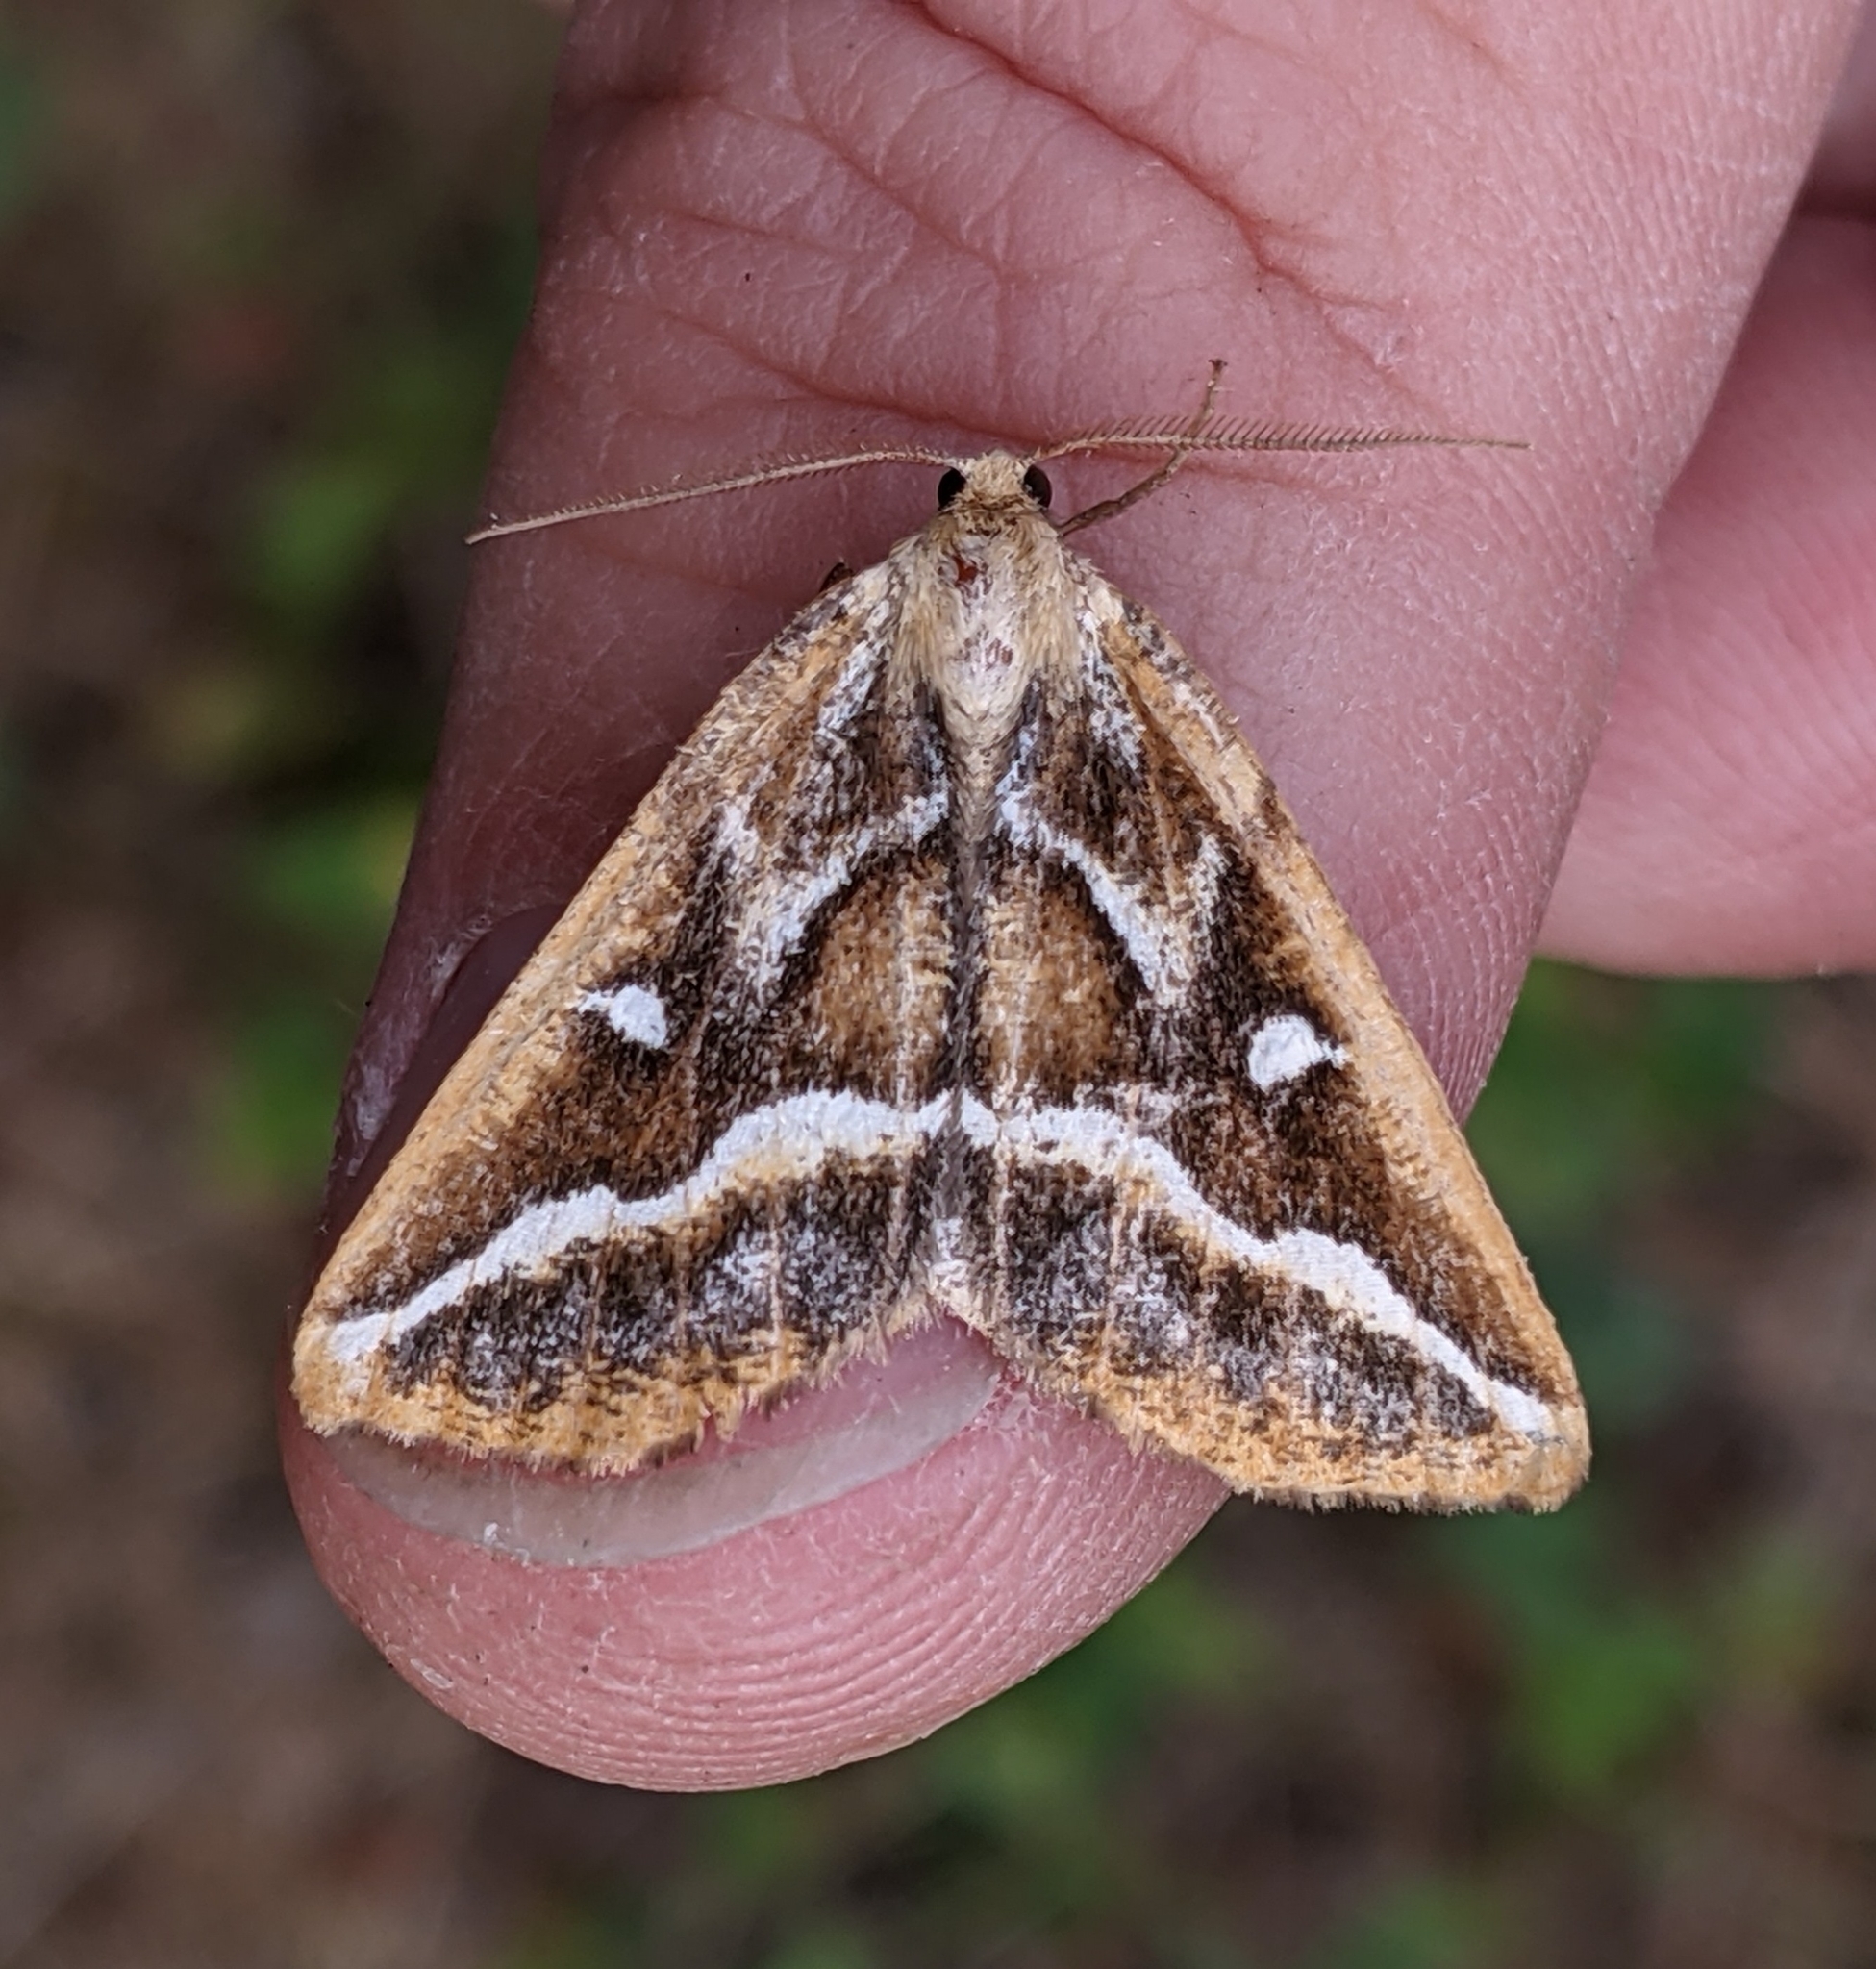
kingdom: Animalia
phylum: Arthropoda
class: Insecta
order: Lepidoptera
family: Geometridae
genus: Caripeta
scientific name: Caripeta angustiorata
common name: Brown pine looper
